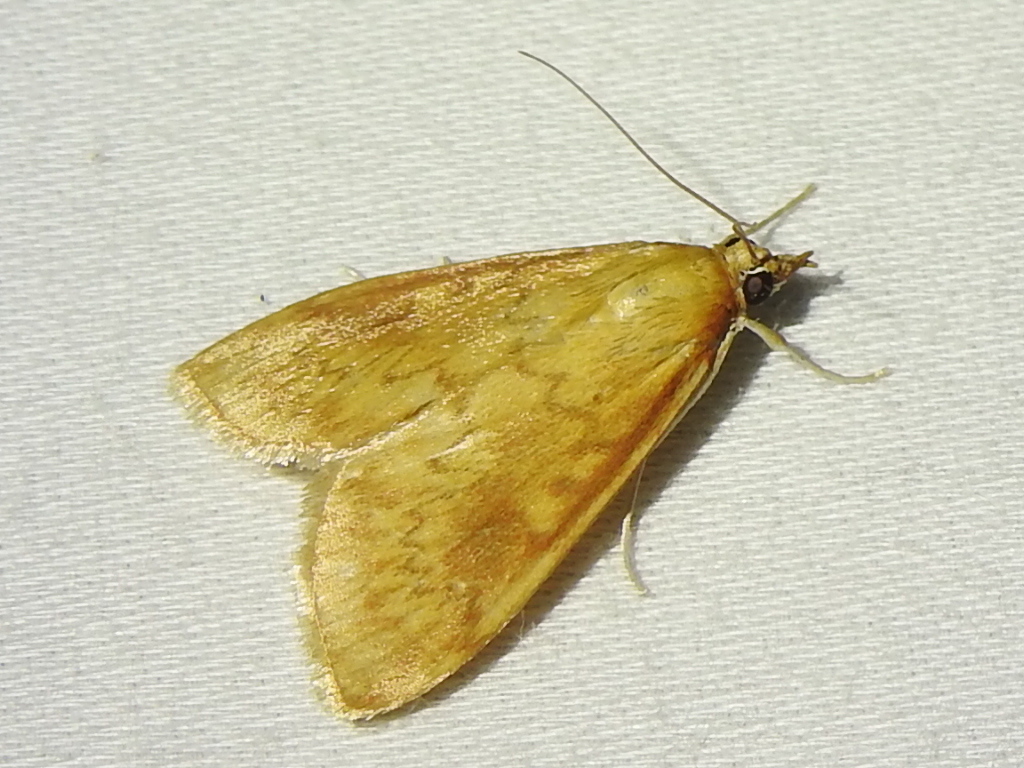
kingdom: Animalia
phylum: Arthropoda
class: Insecta
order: Lepidoptera
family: Crambidae
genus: Ostrinia
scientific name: Ostrinia penitalis
